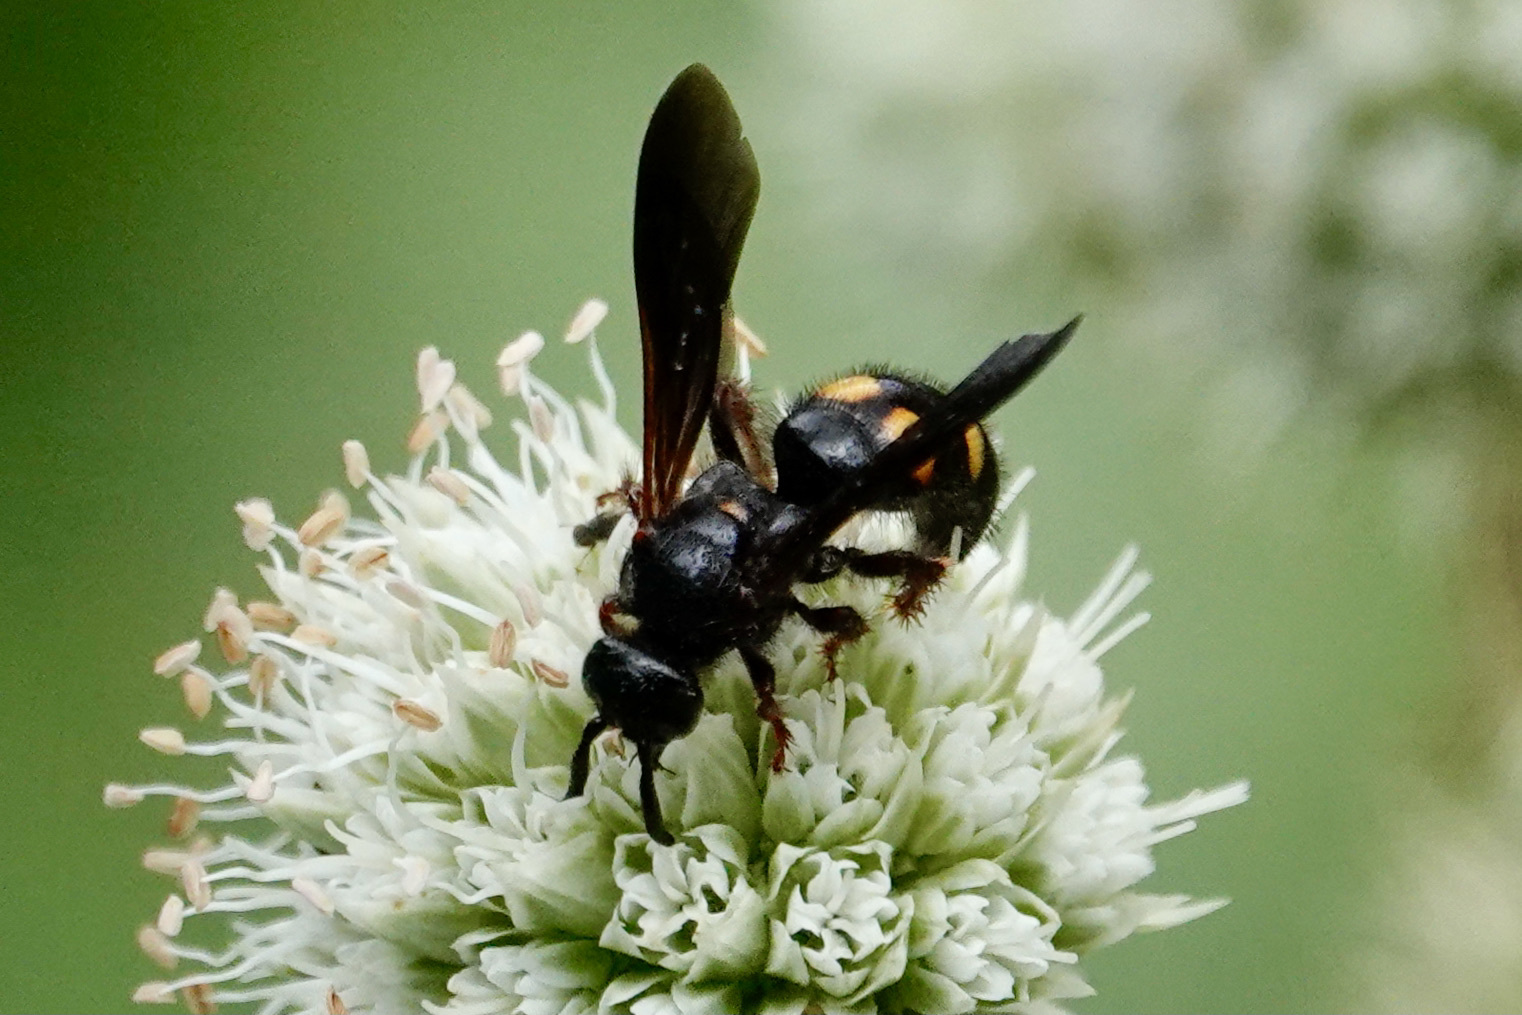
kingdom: Animalia
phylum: Arthropoda
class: Insecta
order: Hymenoptera
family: Scoliidae
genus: Scolia
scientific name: Scolia nobilitata
